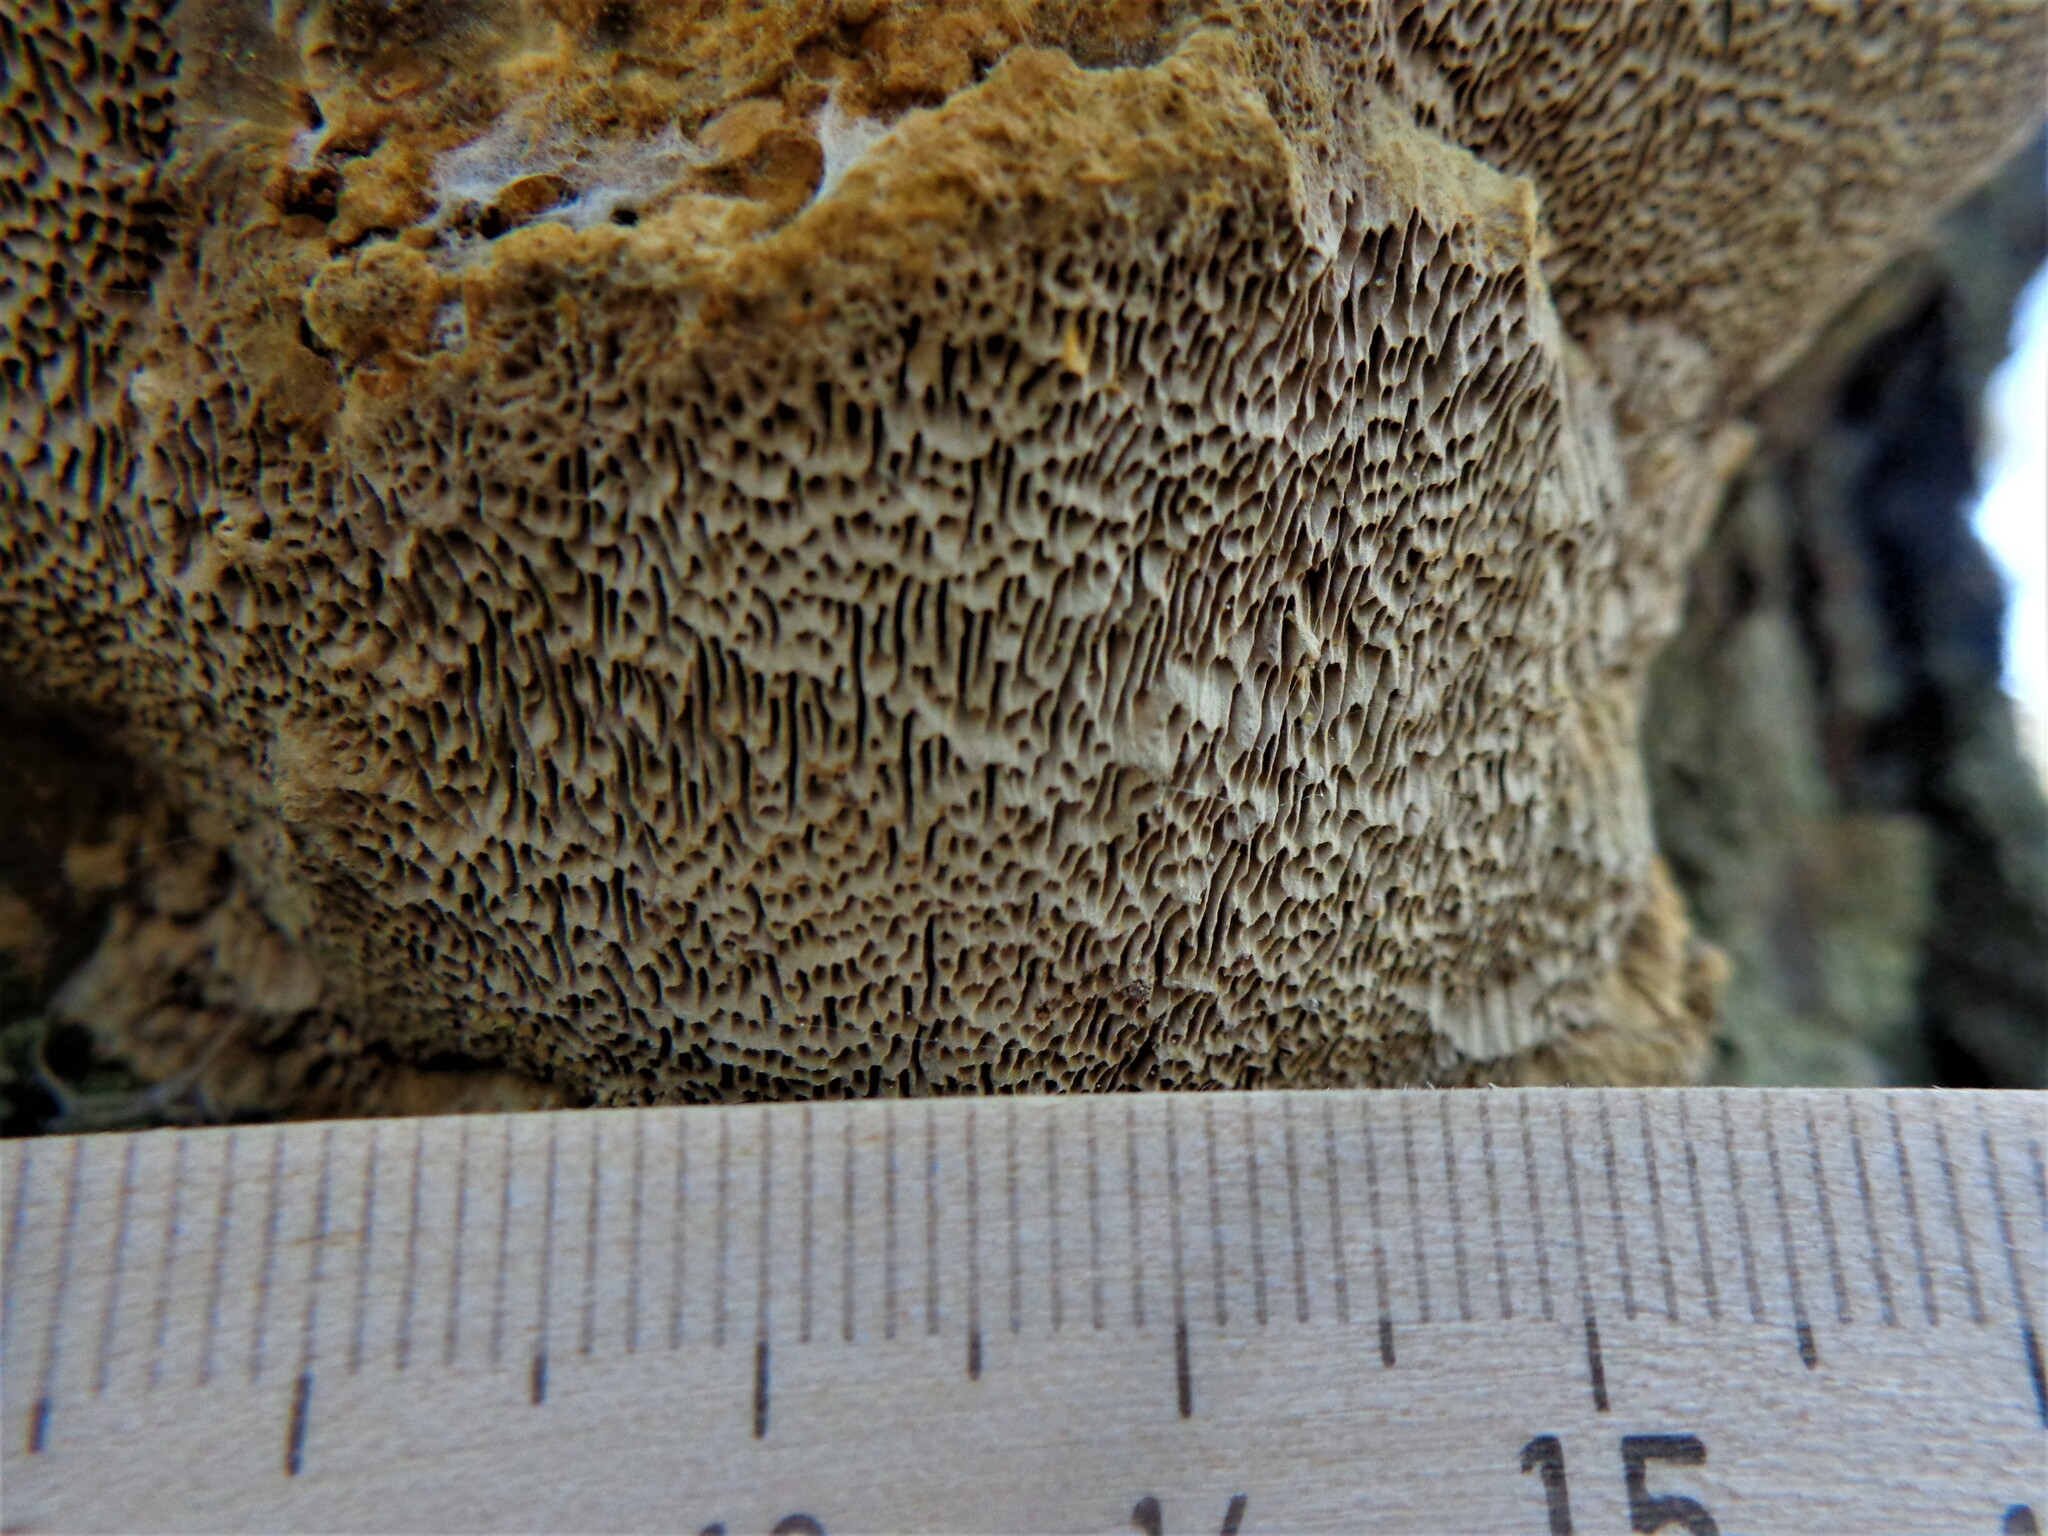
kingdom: Fungi
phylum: Basidiomycota
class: Agaricomycetes
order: Hymenochaetales
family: Hymenochaetaceae
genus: Porodaedalea
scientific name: Porodaedalea pini
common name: Pine bracket
